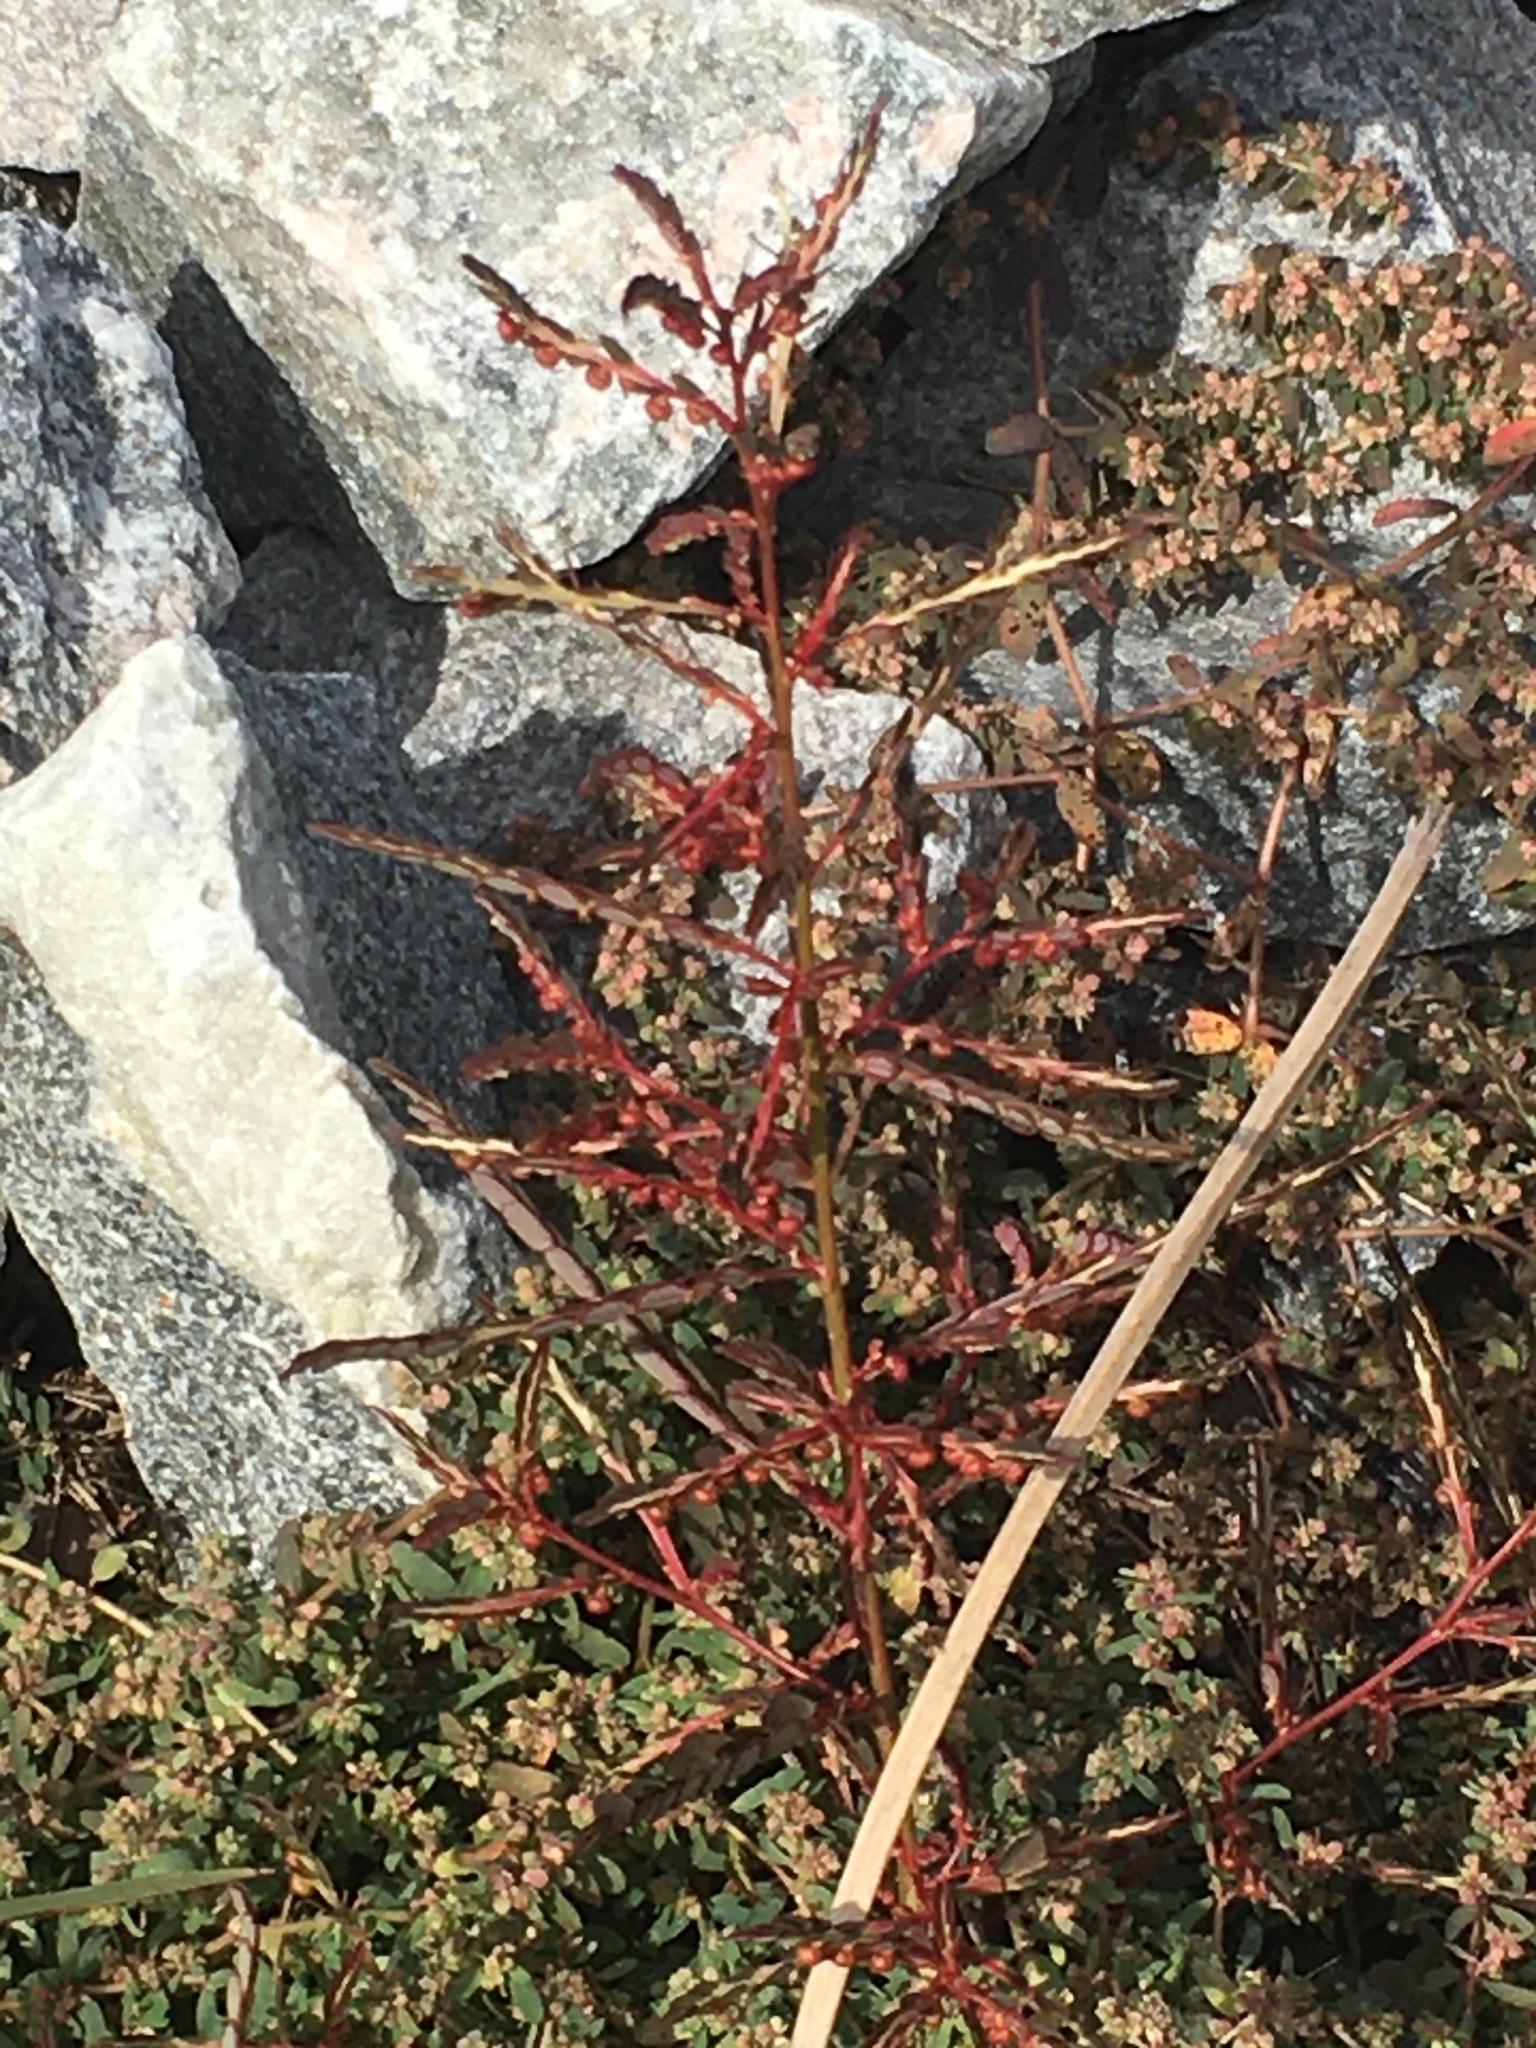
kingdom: Plantae
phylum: Tracheophyta
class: Magnoliopsida
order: Malpighiales
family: Phyllanthaceae
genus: Phyllanthus
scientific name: Phyllanthus urinaria
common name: Chamber bitter
